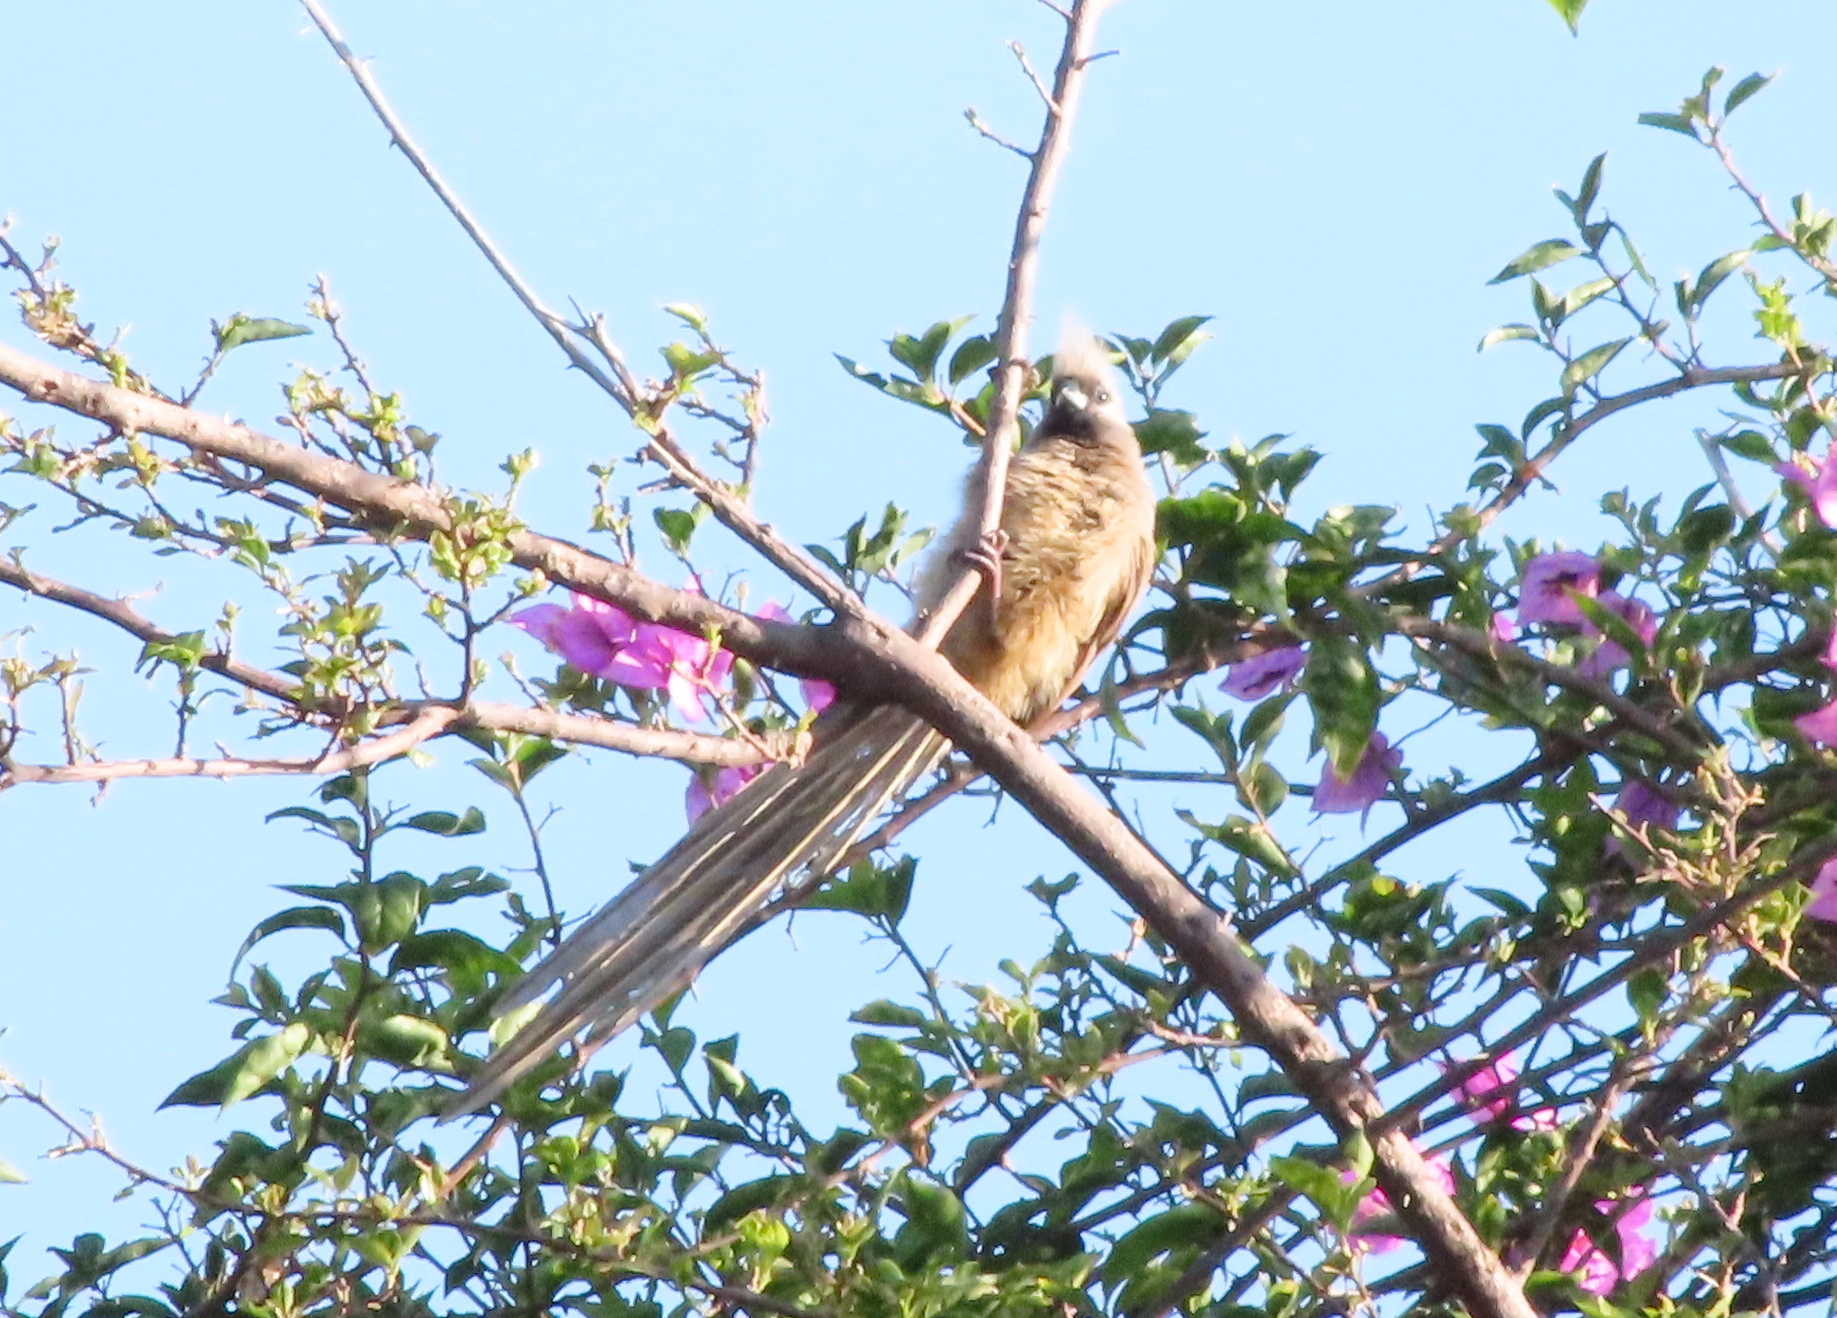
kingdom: Animalia
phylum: Chordata
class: Aves
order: Coliiformes
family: Coliidae
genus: Colius
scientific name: Colius striatus
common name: Speckled mousebird
